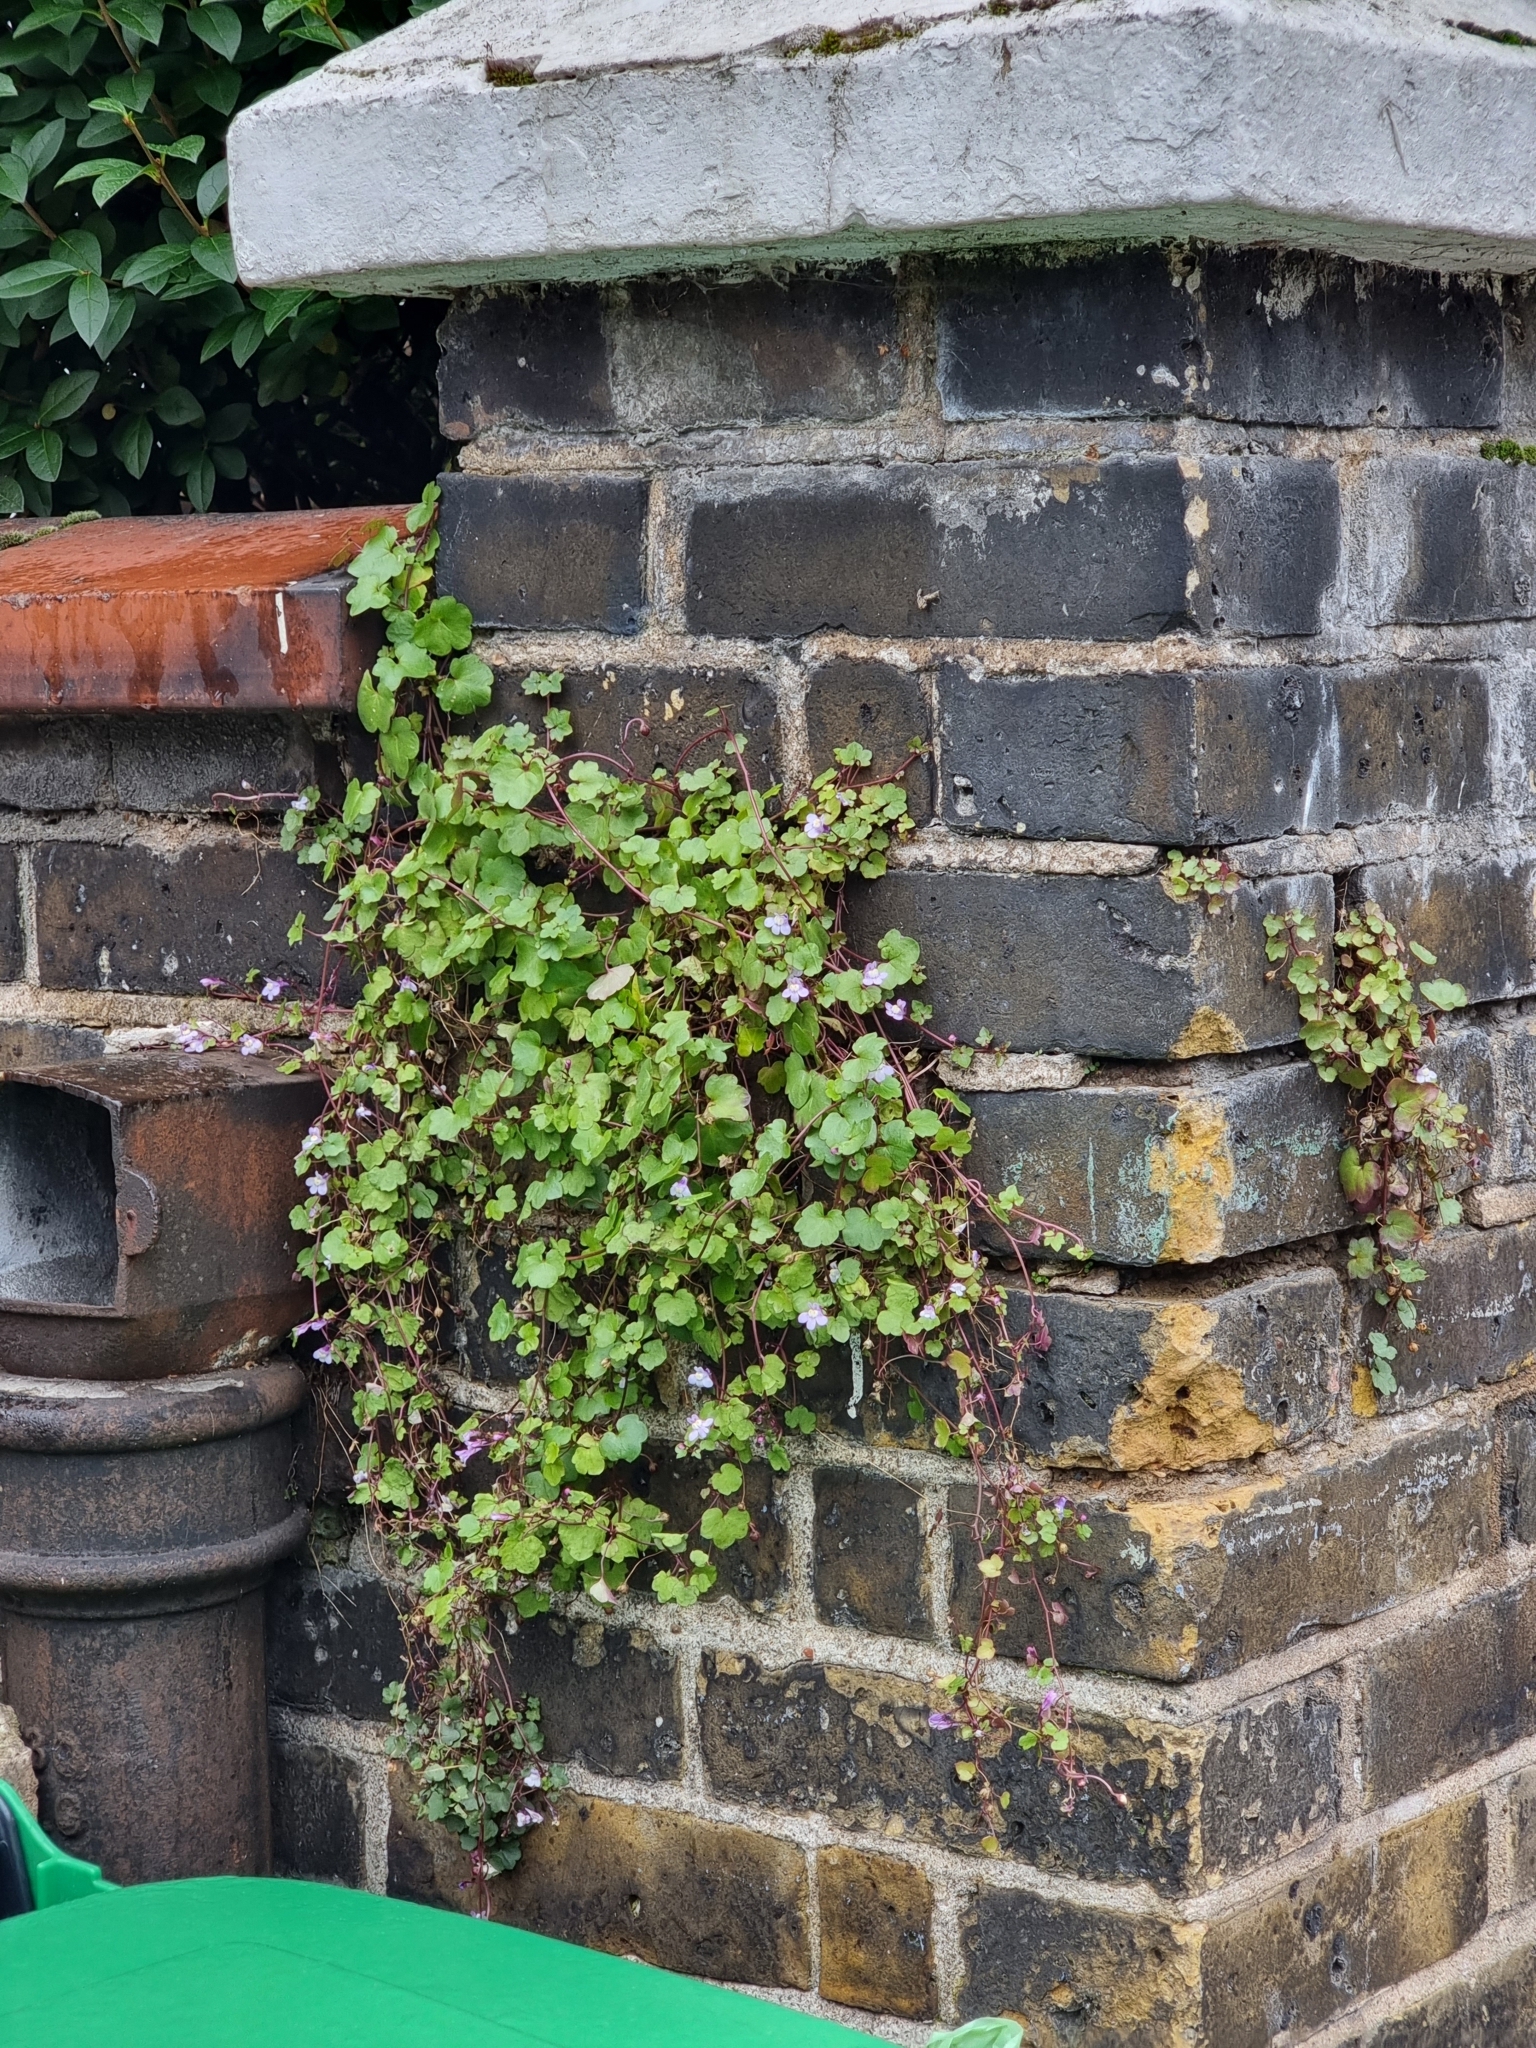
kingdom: Plantae
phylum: Tracheophyta
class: Magnoliopsida
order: Lamiales
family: Plantaginaceae
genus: Cymbalaria
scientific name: Cymbalaria muralis
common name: Ivy-leaved toadflax
